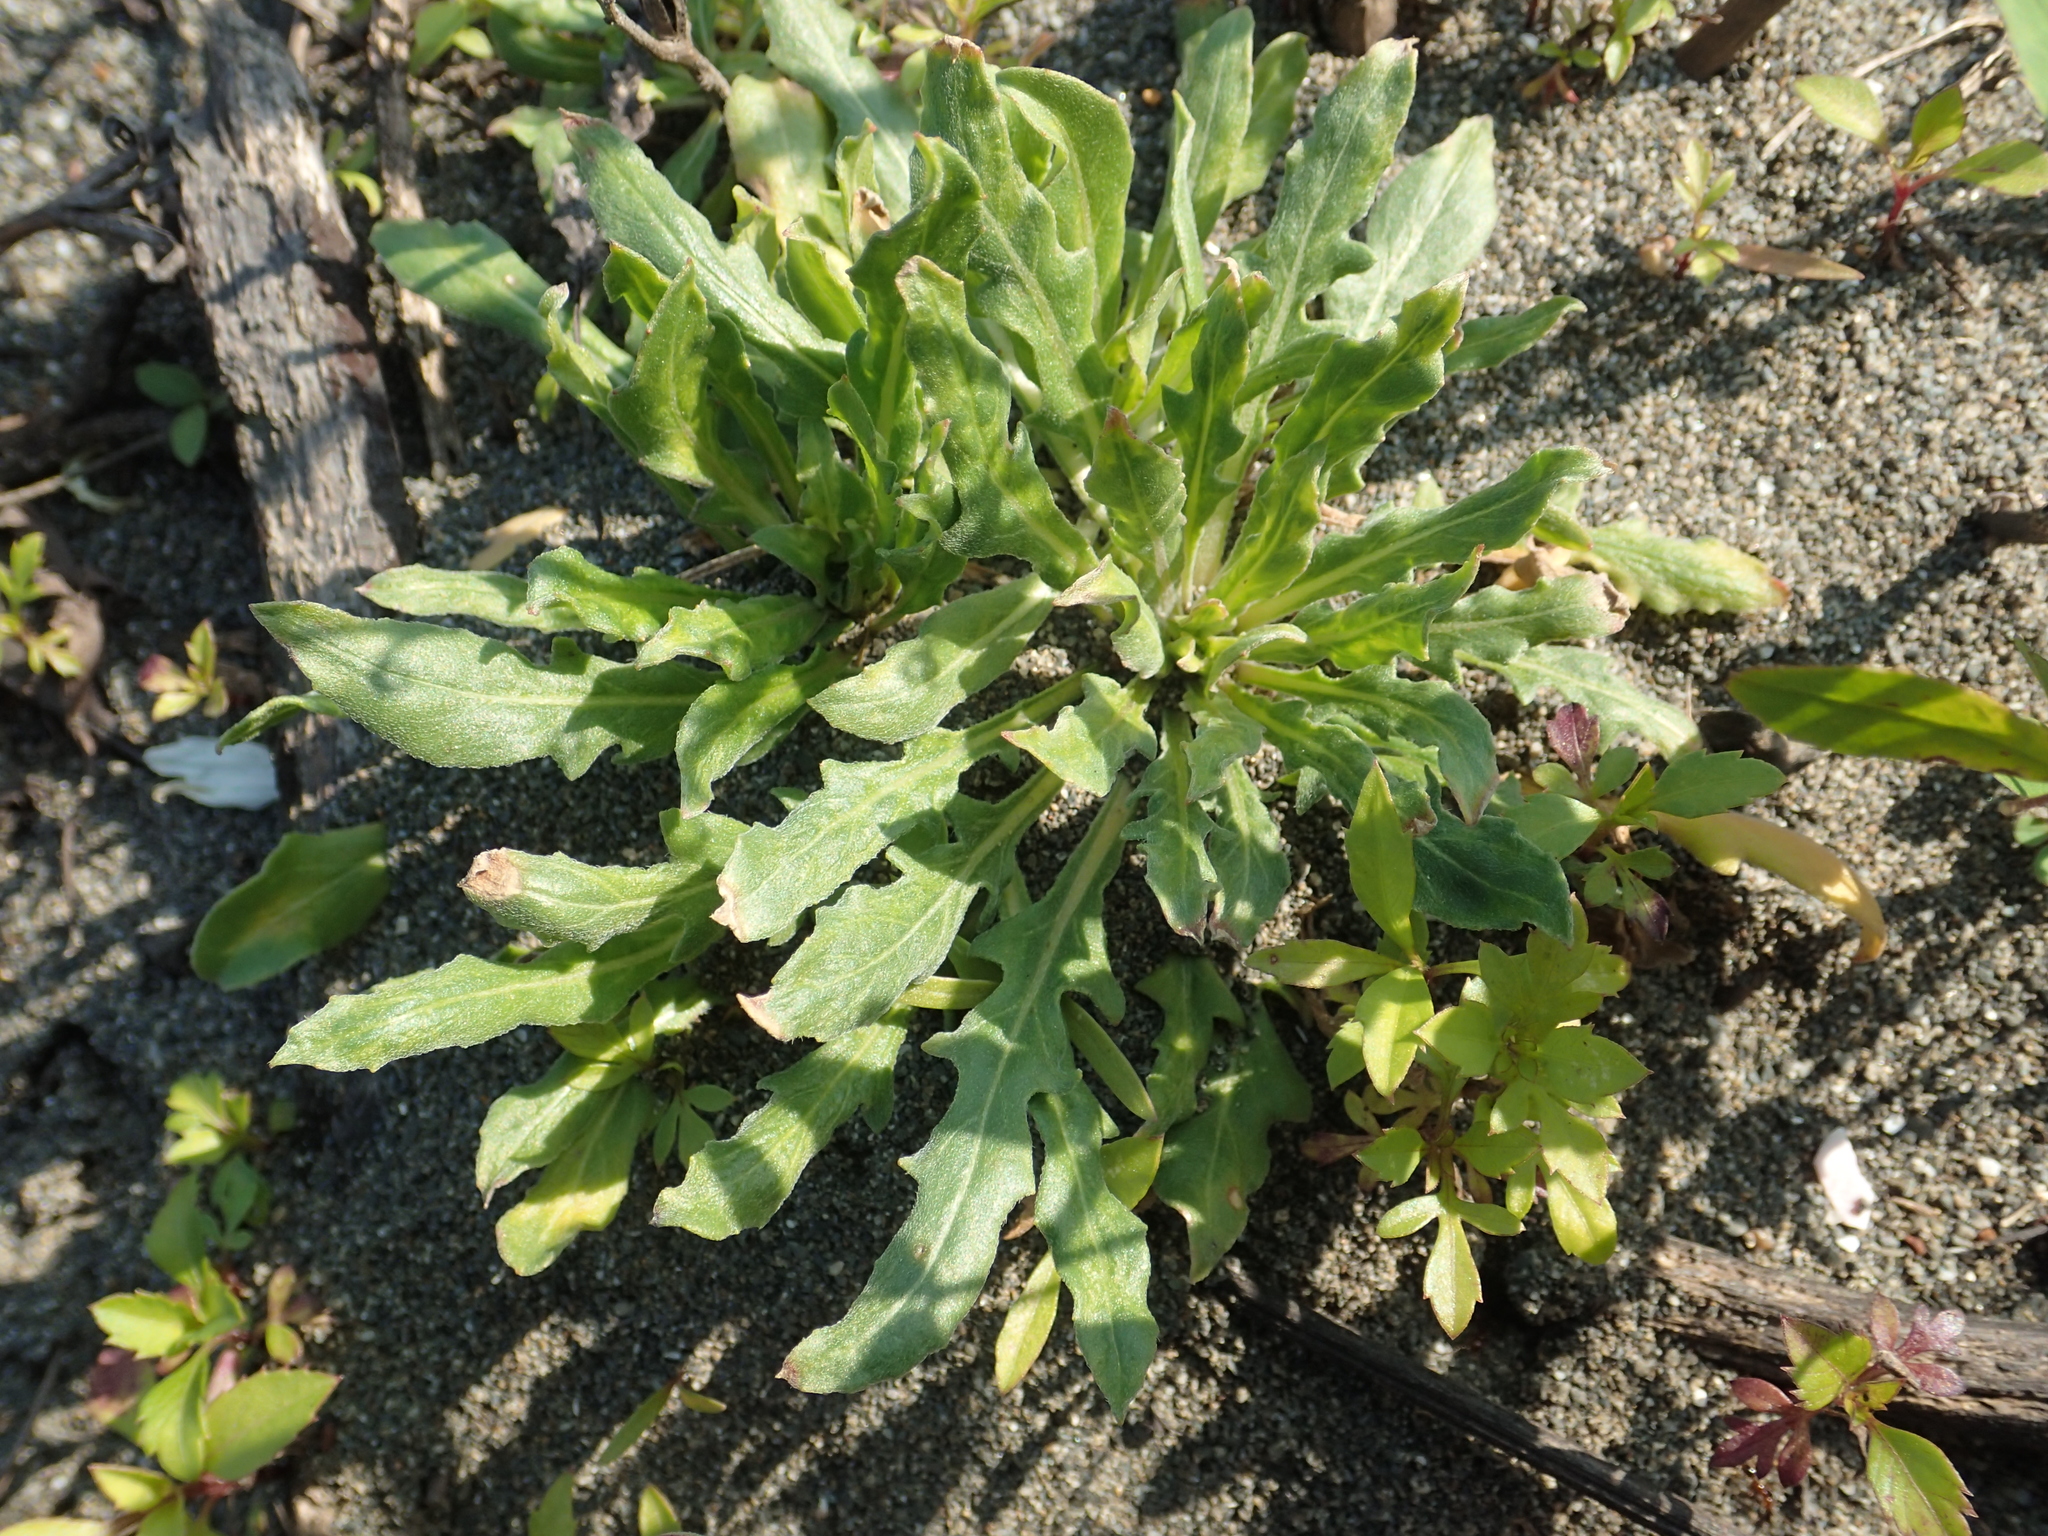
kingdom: Plantae
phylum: Tracheophyta
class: Magnoliopsida
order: Myrtales
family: Onagraceae
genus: Oenothera
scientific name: Oenothera laciniata
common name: Cut-leaved evening-primrose
